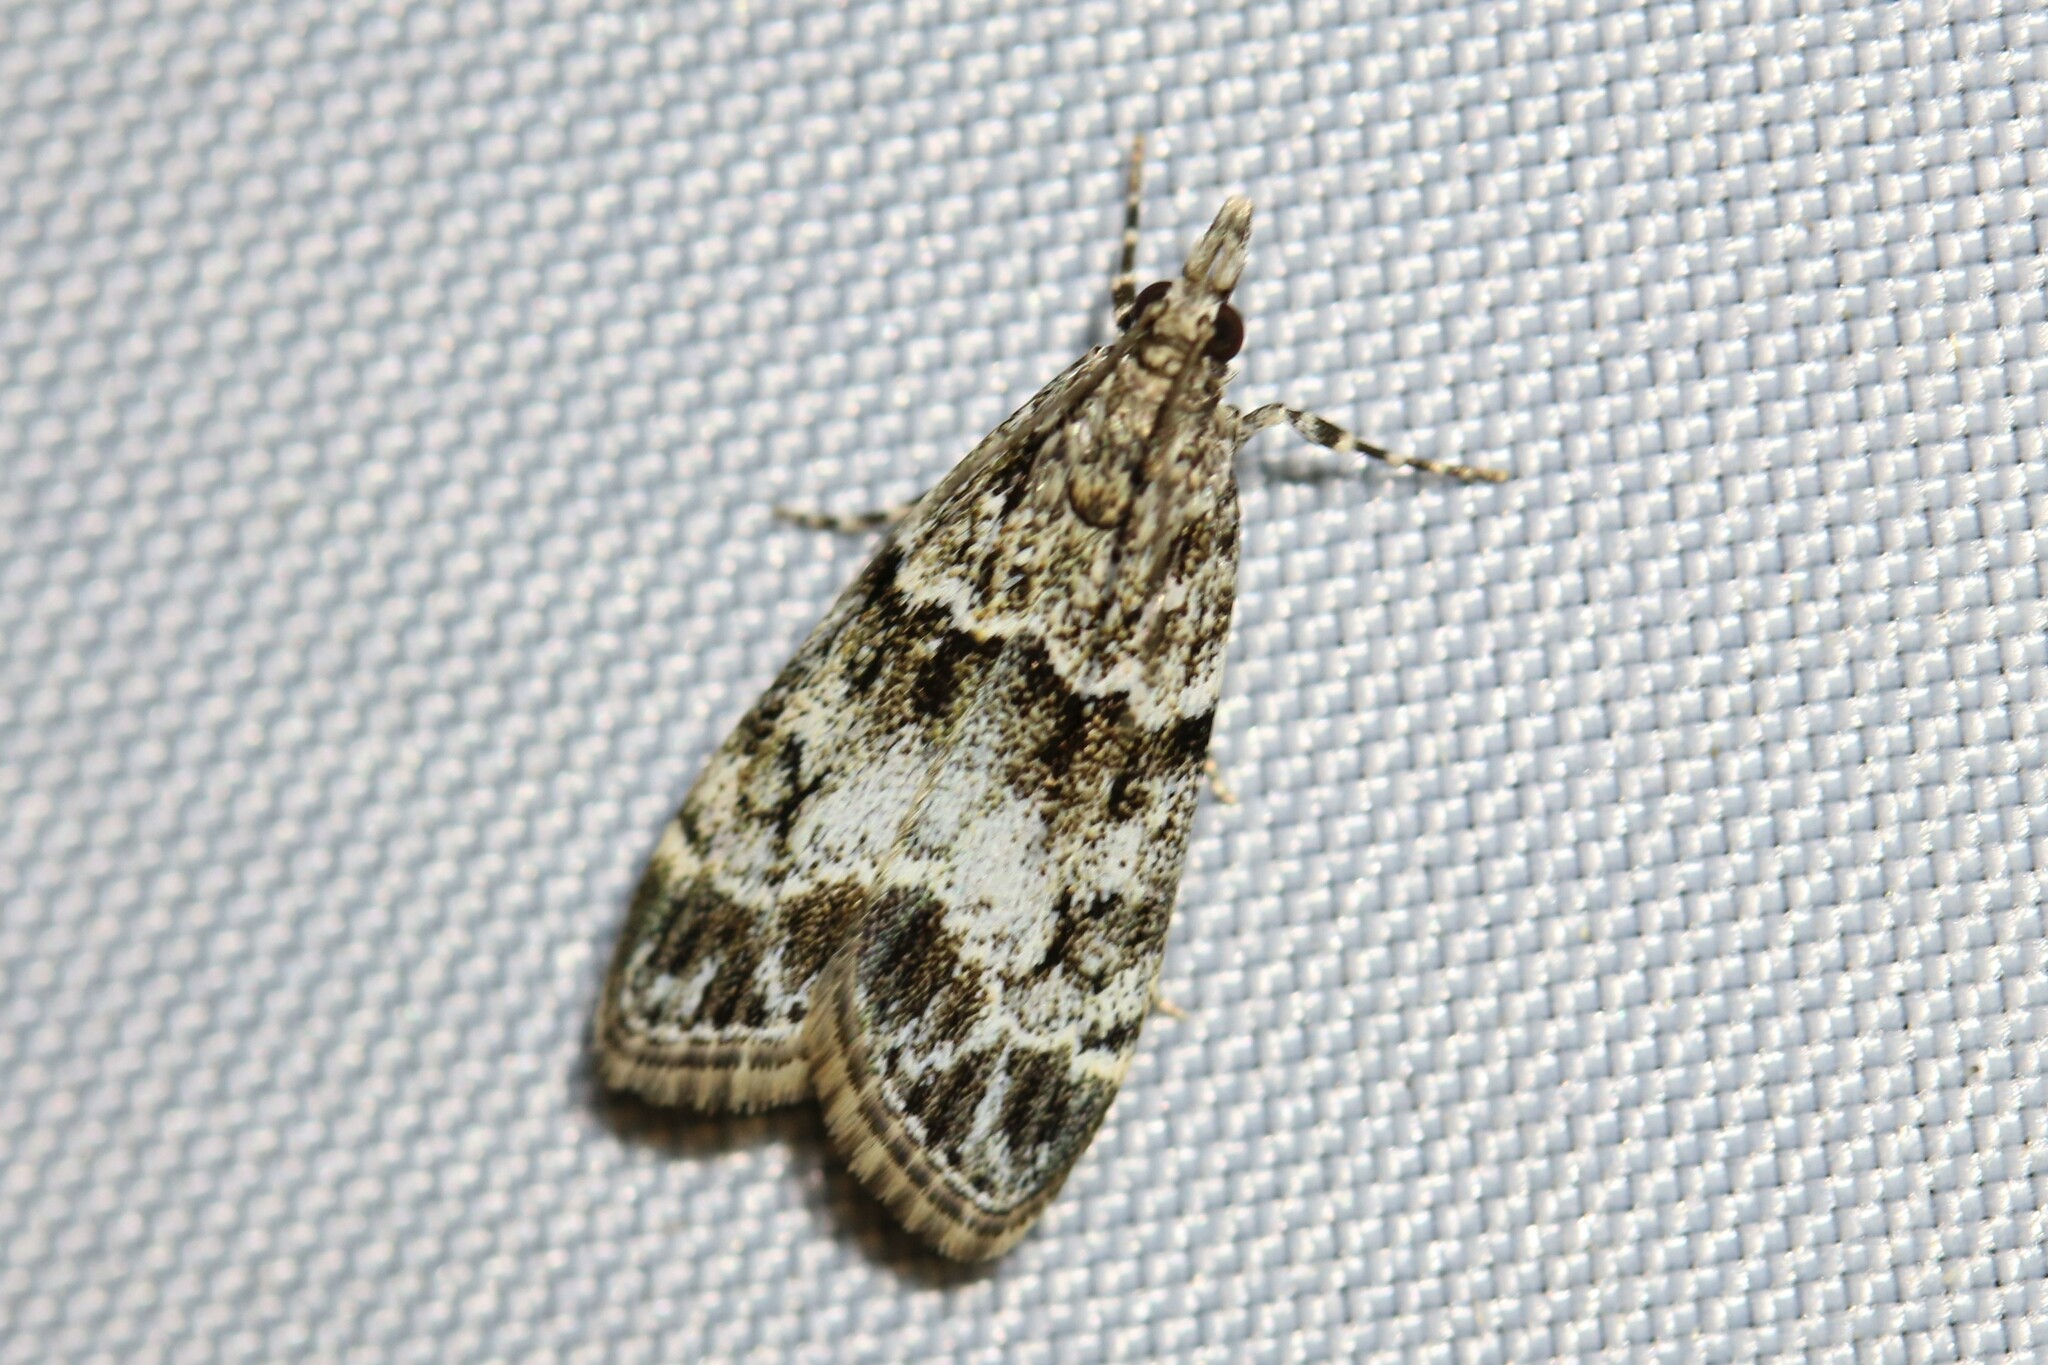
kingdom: Animalia
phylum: Arthropoda
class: Insecta
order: Lepidoptera
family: Crambidae
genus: Eudonia
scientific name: Eudonia mercurella
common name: Small grey
